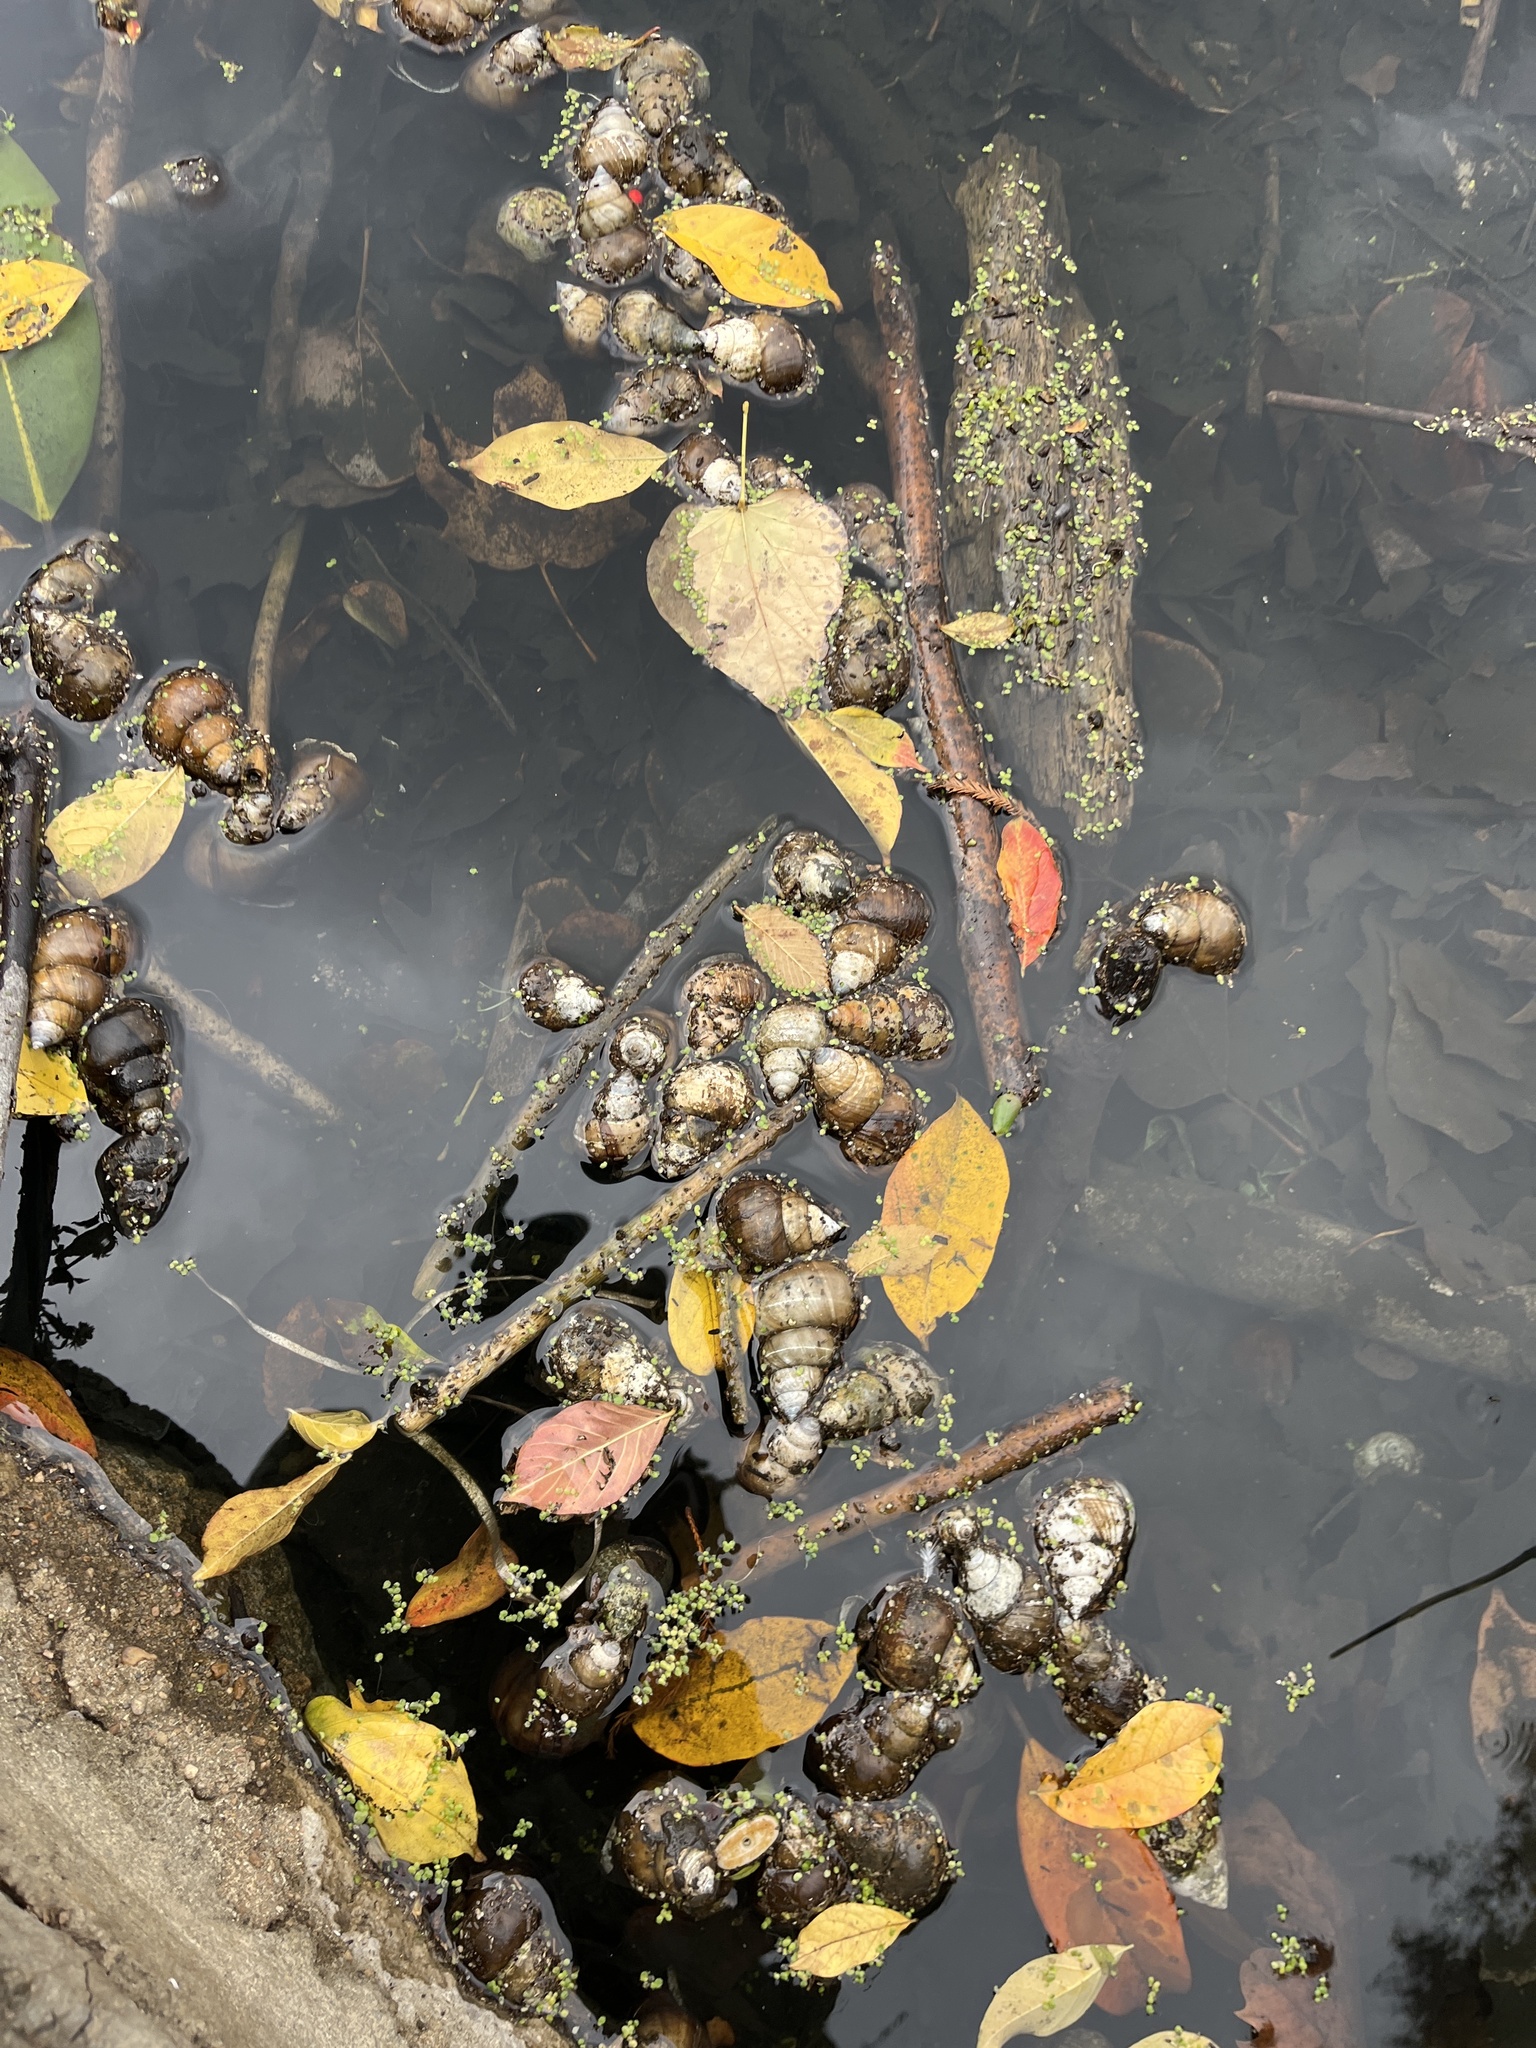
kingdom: Animalia
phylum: Mollusca
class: Gastropoda
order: Architaenioglossa
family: Viviparidae
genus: Cipangopaludina
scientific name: Cipangopaludina chinensis
